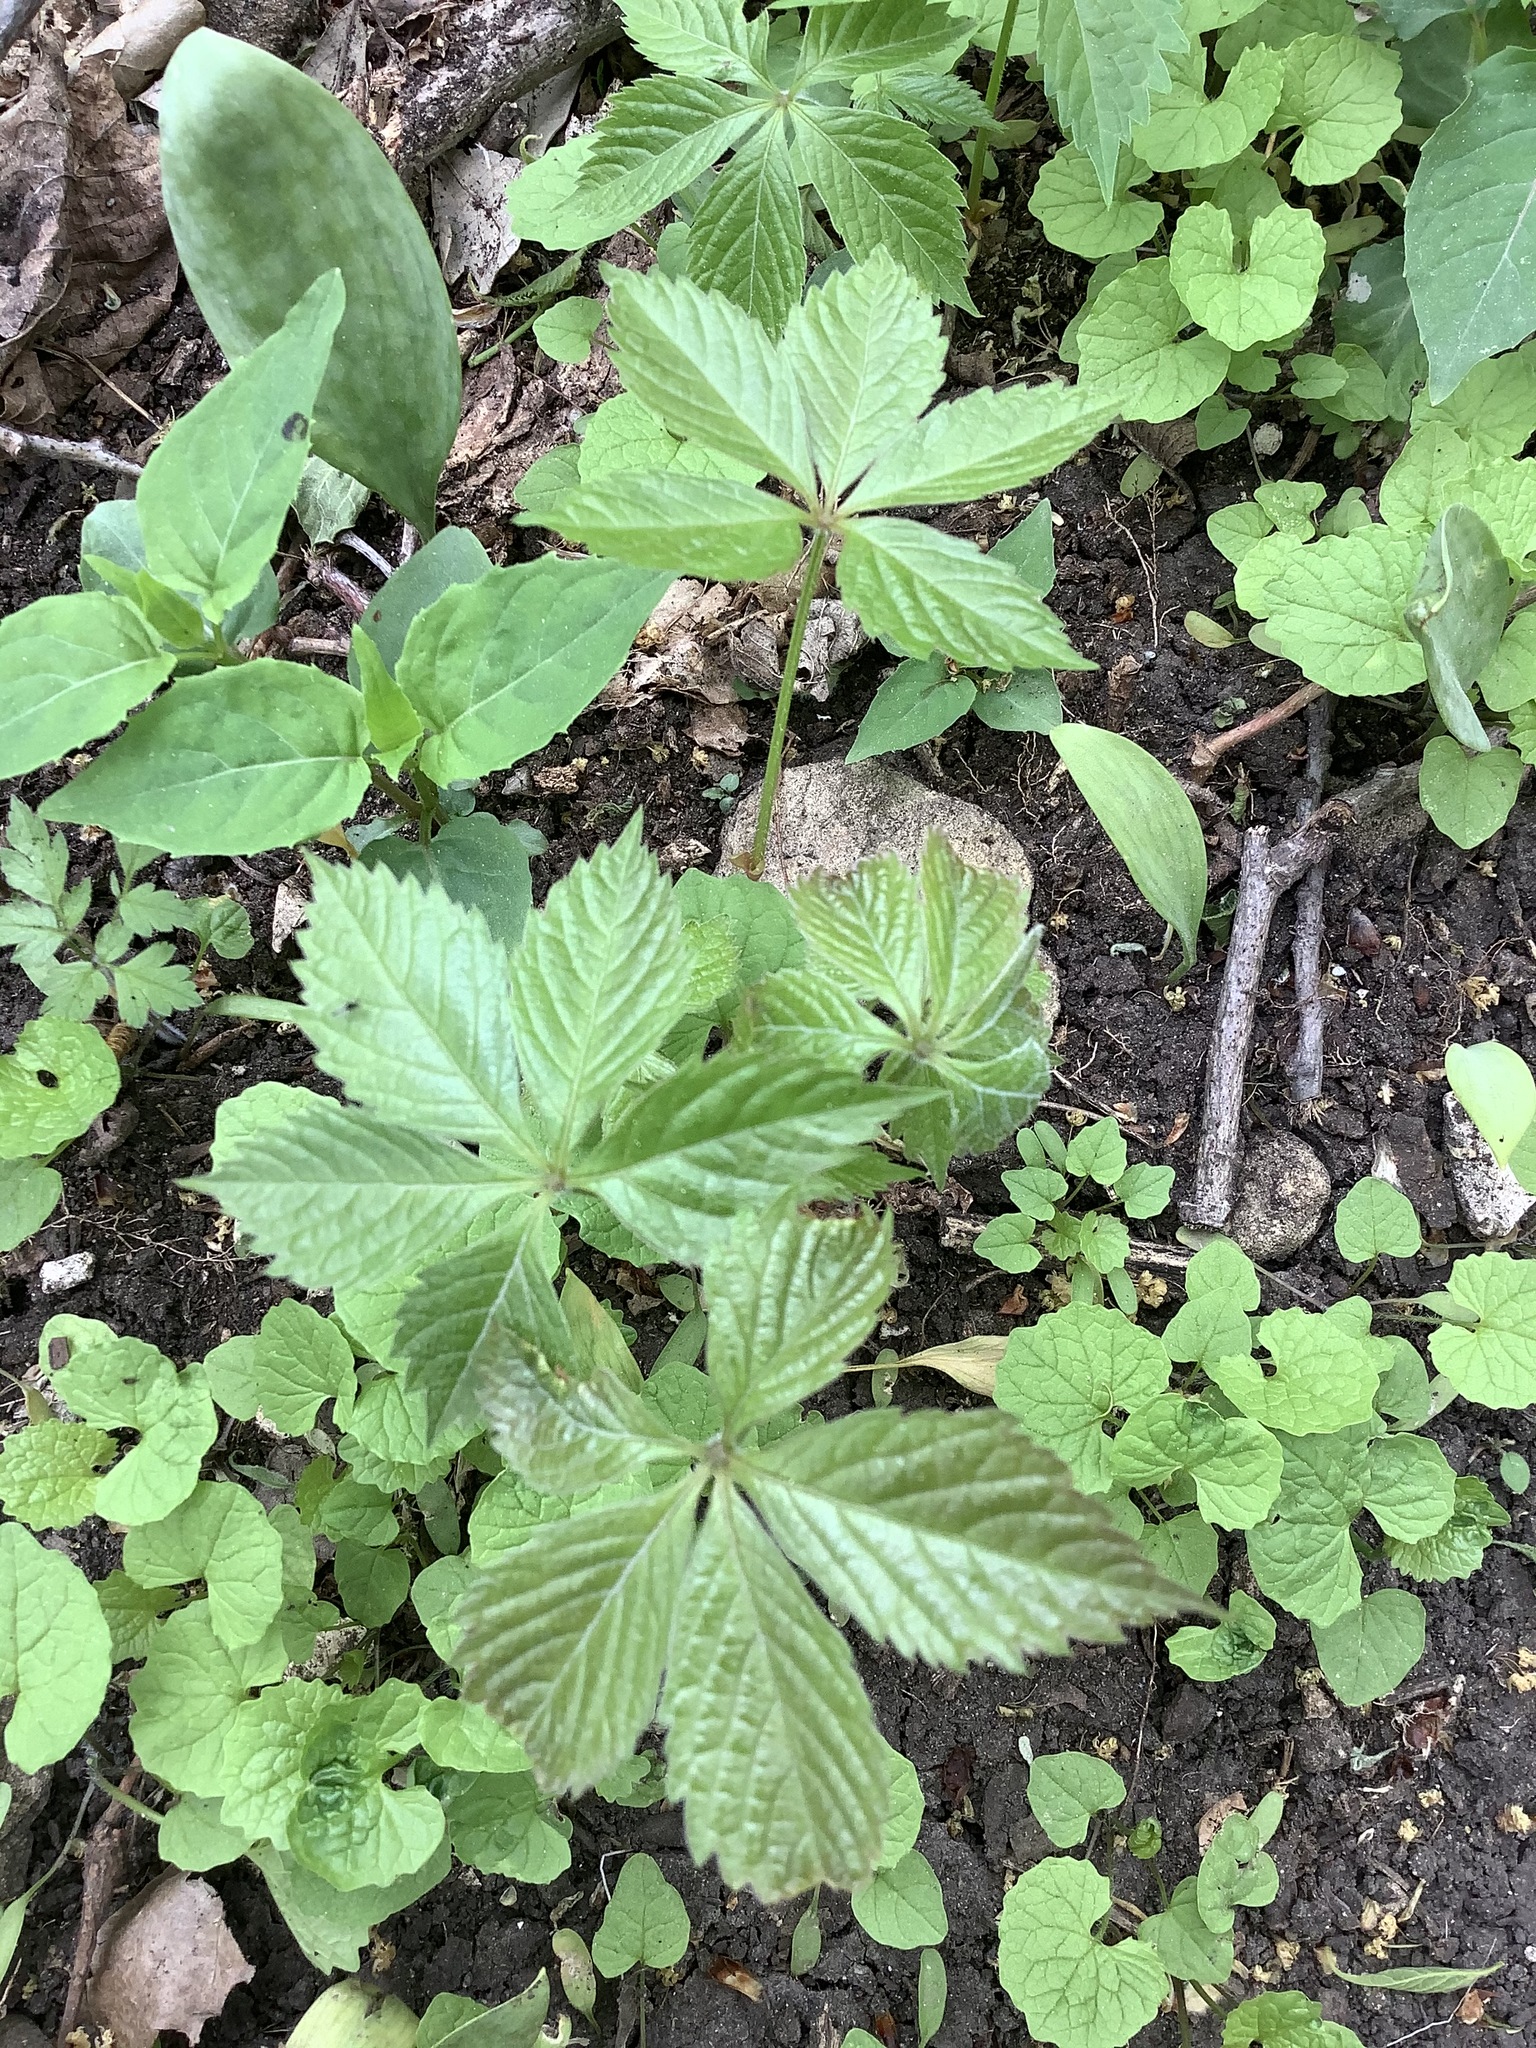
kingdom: Plantae
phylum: Tracheophyta
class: Magnoliopsida
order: Vitales
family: Vitaceae
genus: Parthenocissus
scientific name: Parthenocissus quinquefolia
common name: Virginia-creeper
